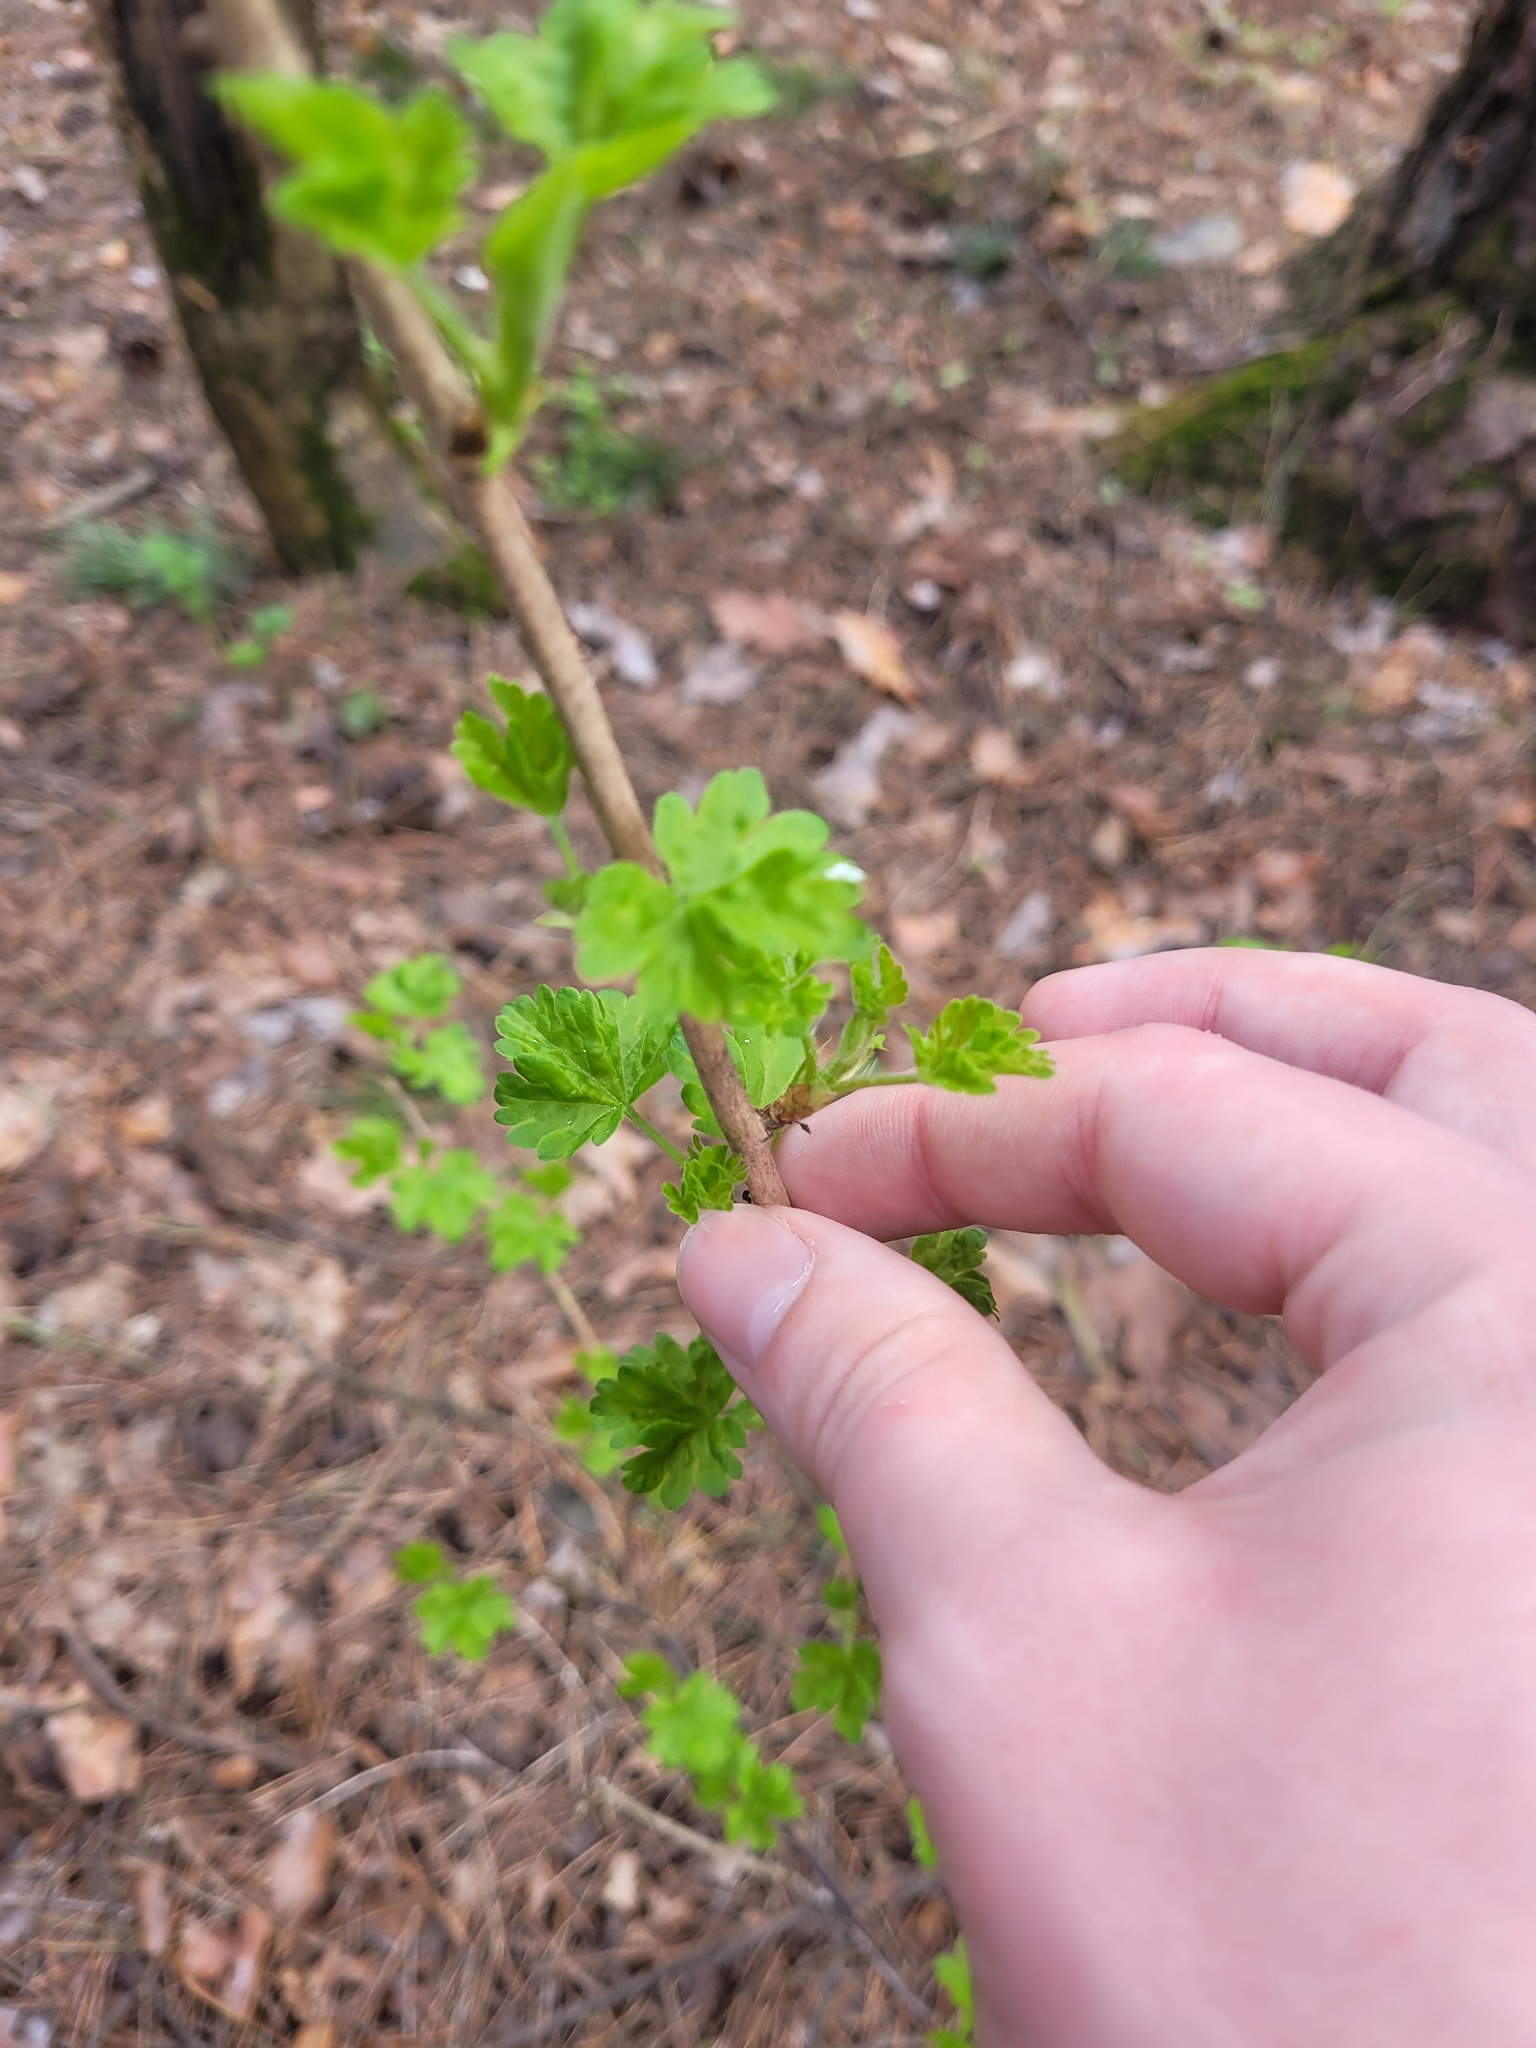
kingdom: Plantae
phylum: Tracheophyta
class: Magnoliopsida
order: Saxifragales
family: Grossulariaceae
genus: Ribes
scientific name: Ribes uva-crispa
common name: Gooseberry
